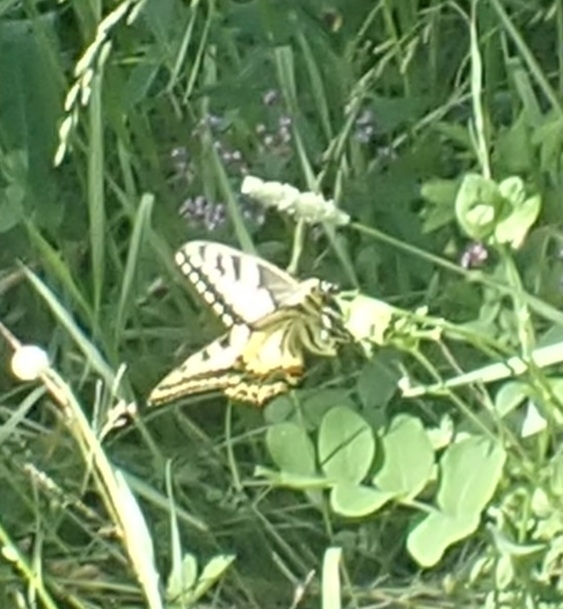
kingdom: Animalia
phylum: Arthropoda
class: Insecta
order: Lepidoptera
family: Papilionidae
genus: Papilio
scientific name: Papilio machaon
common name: Swallowtail
